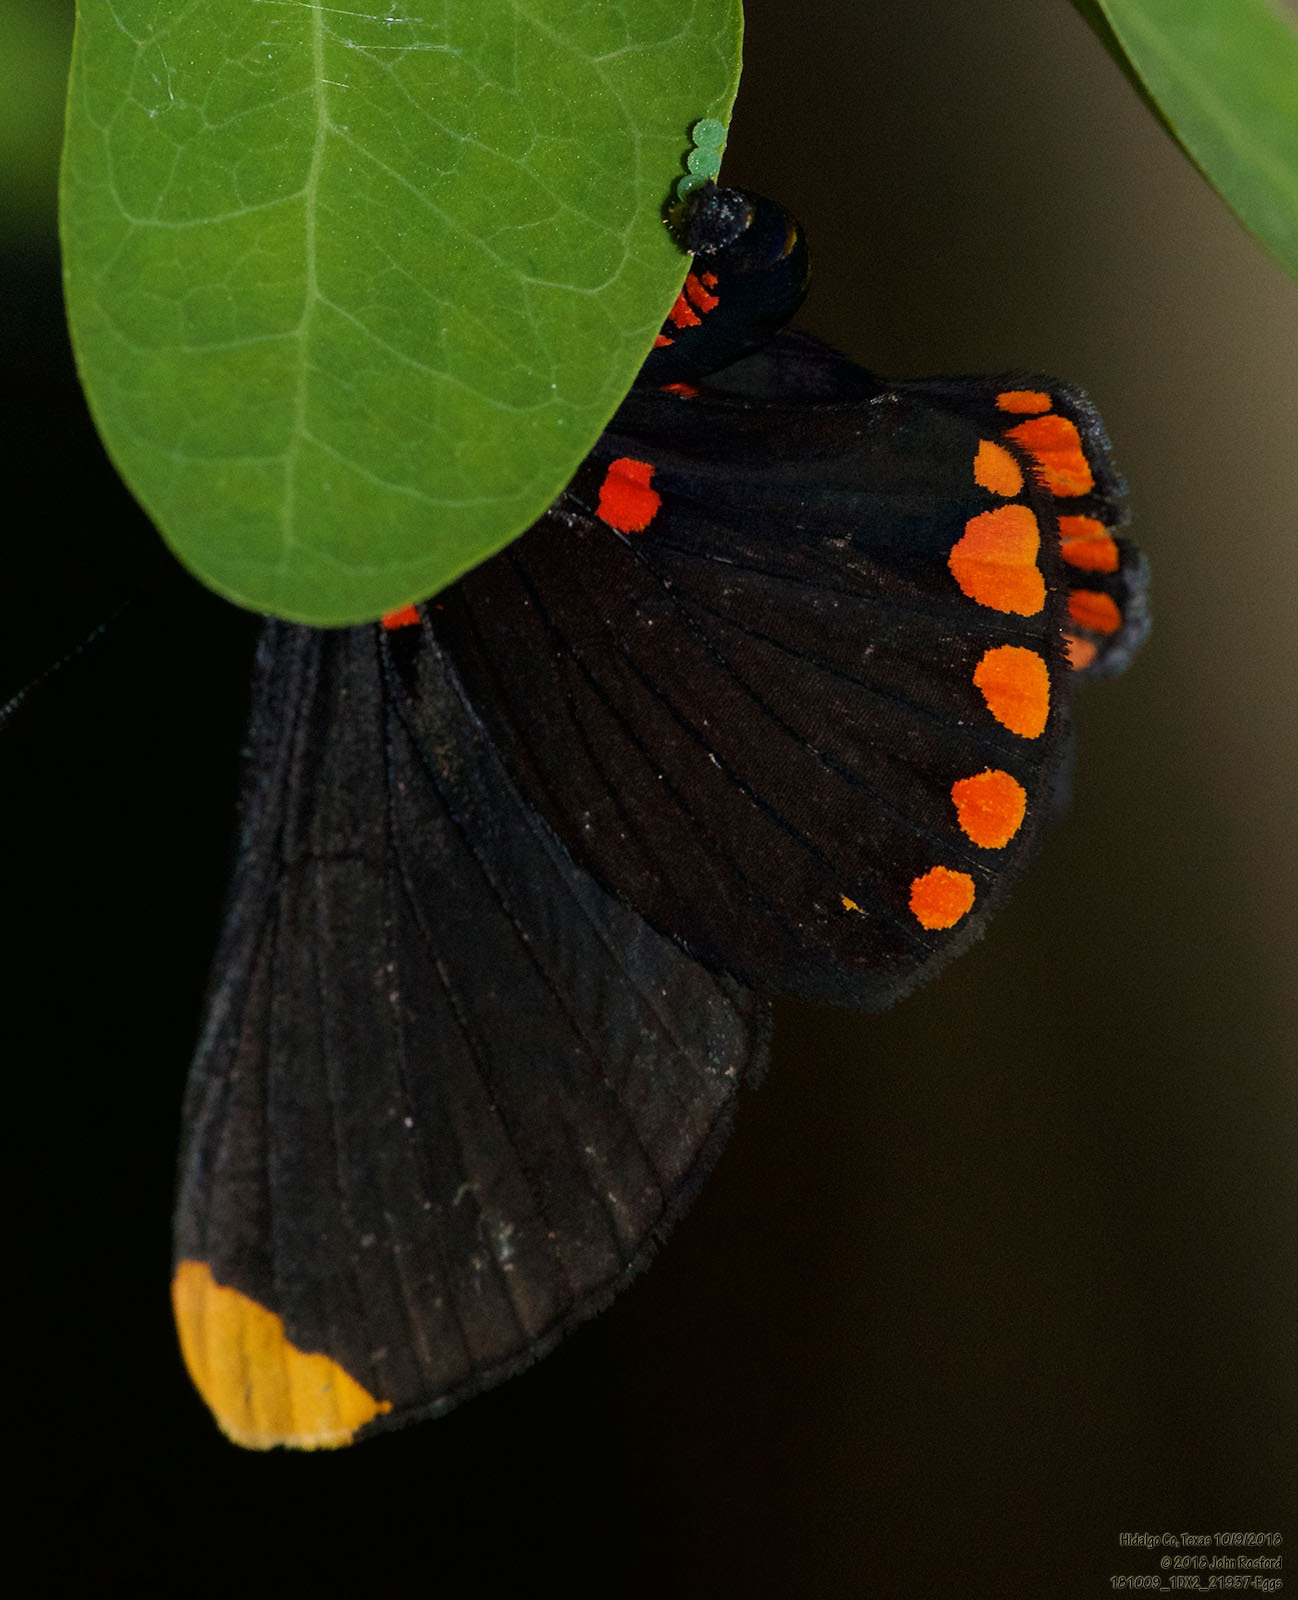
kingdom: Animalia
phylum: Arthropoda
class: Insecta
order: Lepidoptera
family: Lycaenidae
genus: Melanis
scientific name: Melanis pixe
